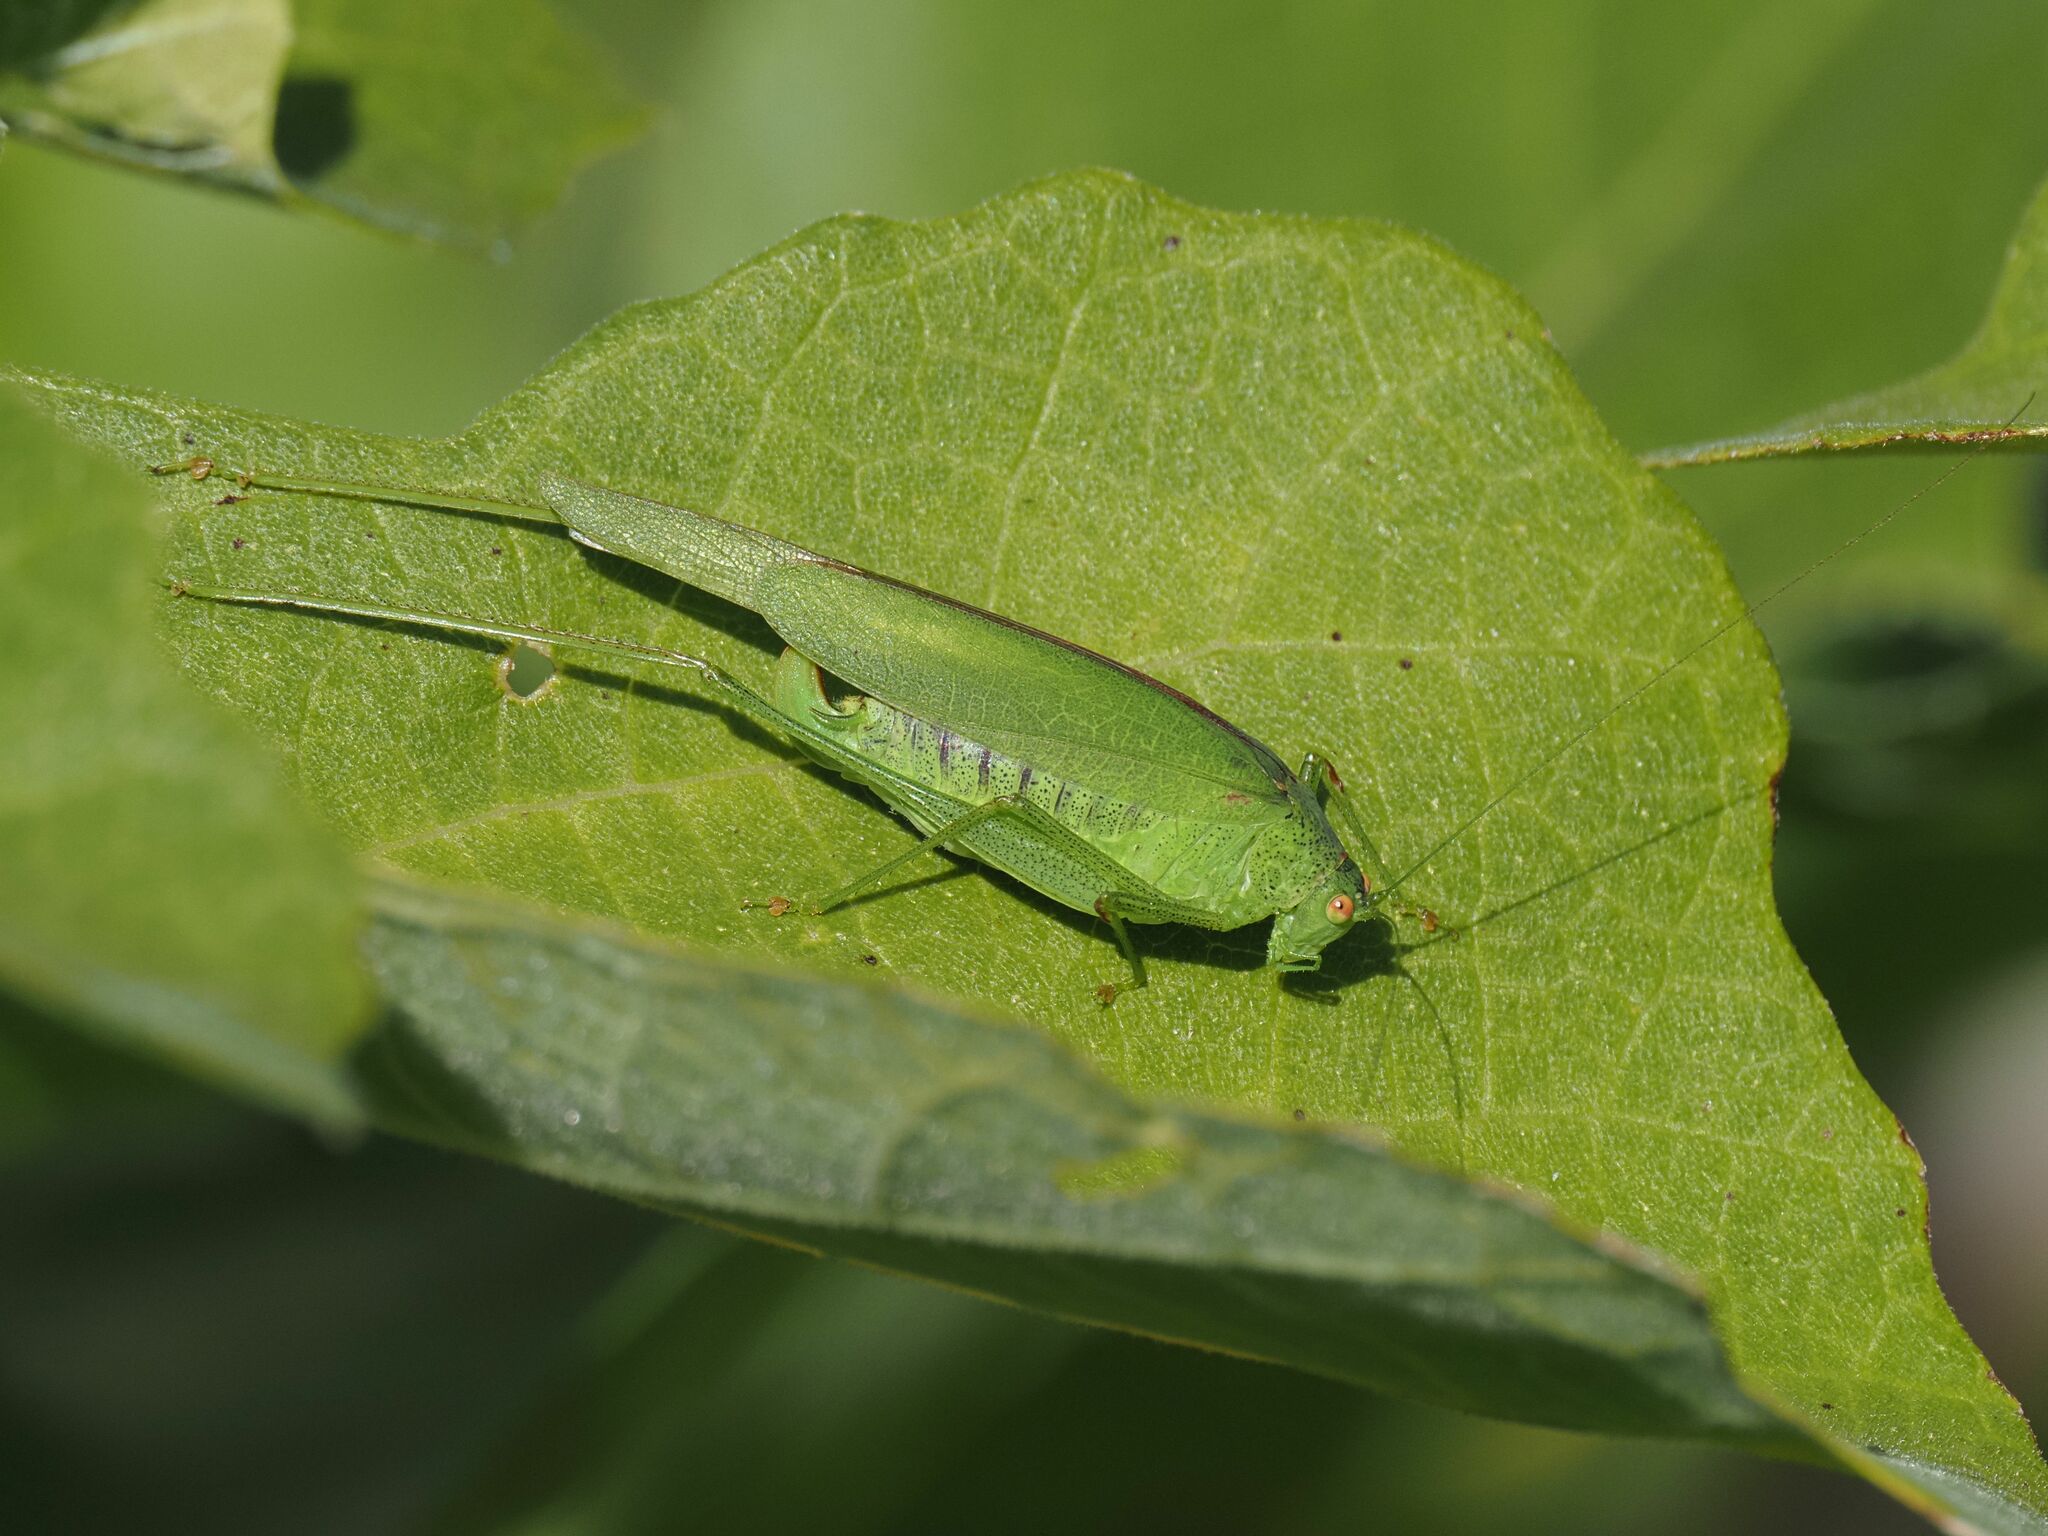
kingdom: Animalia
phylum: Arthropoda
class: Insecta
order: Orthoptera
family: Tettigoniidae
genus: Phaneroptera
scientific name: Phaneroptera nana
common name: Southern sickle bush-cricket
